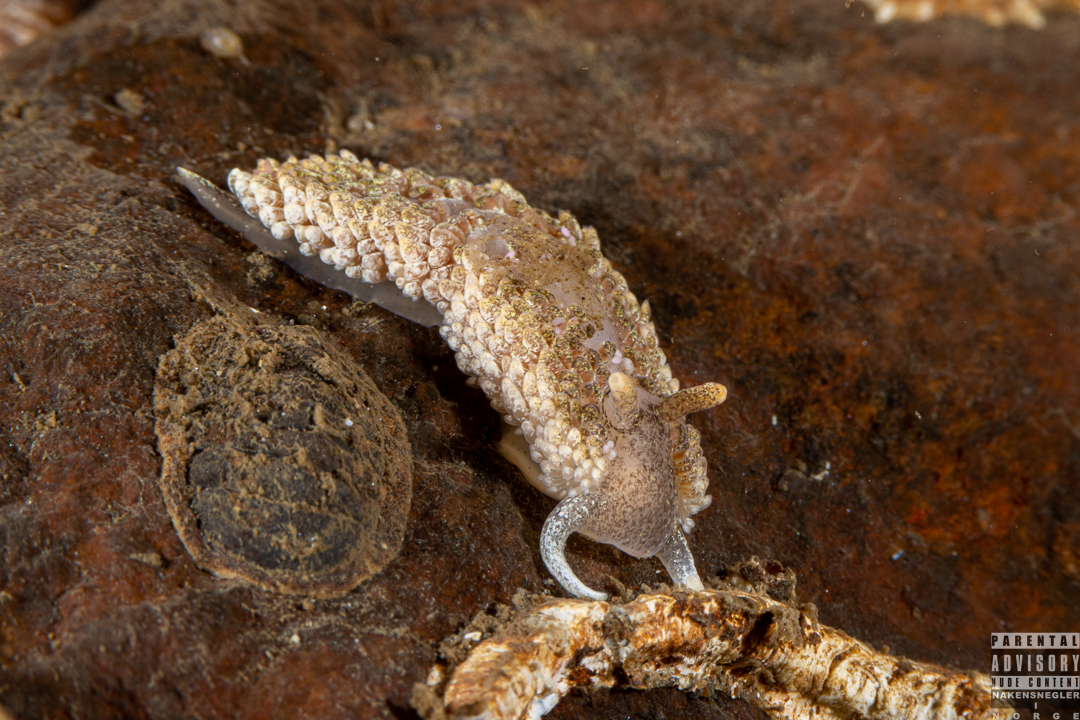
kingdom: Animalia
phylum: Mollusca
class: Gastropoda
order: Nudibranchia
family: Aeolidiidae
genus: Aeolidia
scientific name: Aeolidia papillosa
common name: Common grey sea slug
